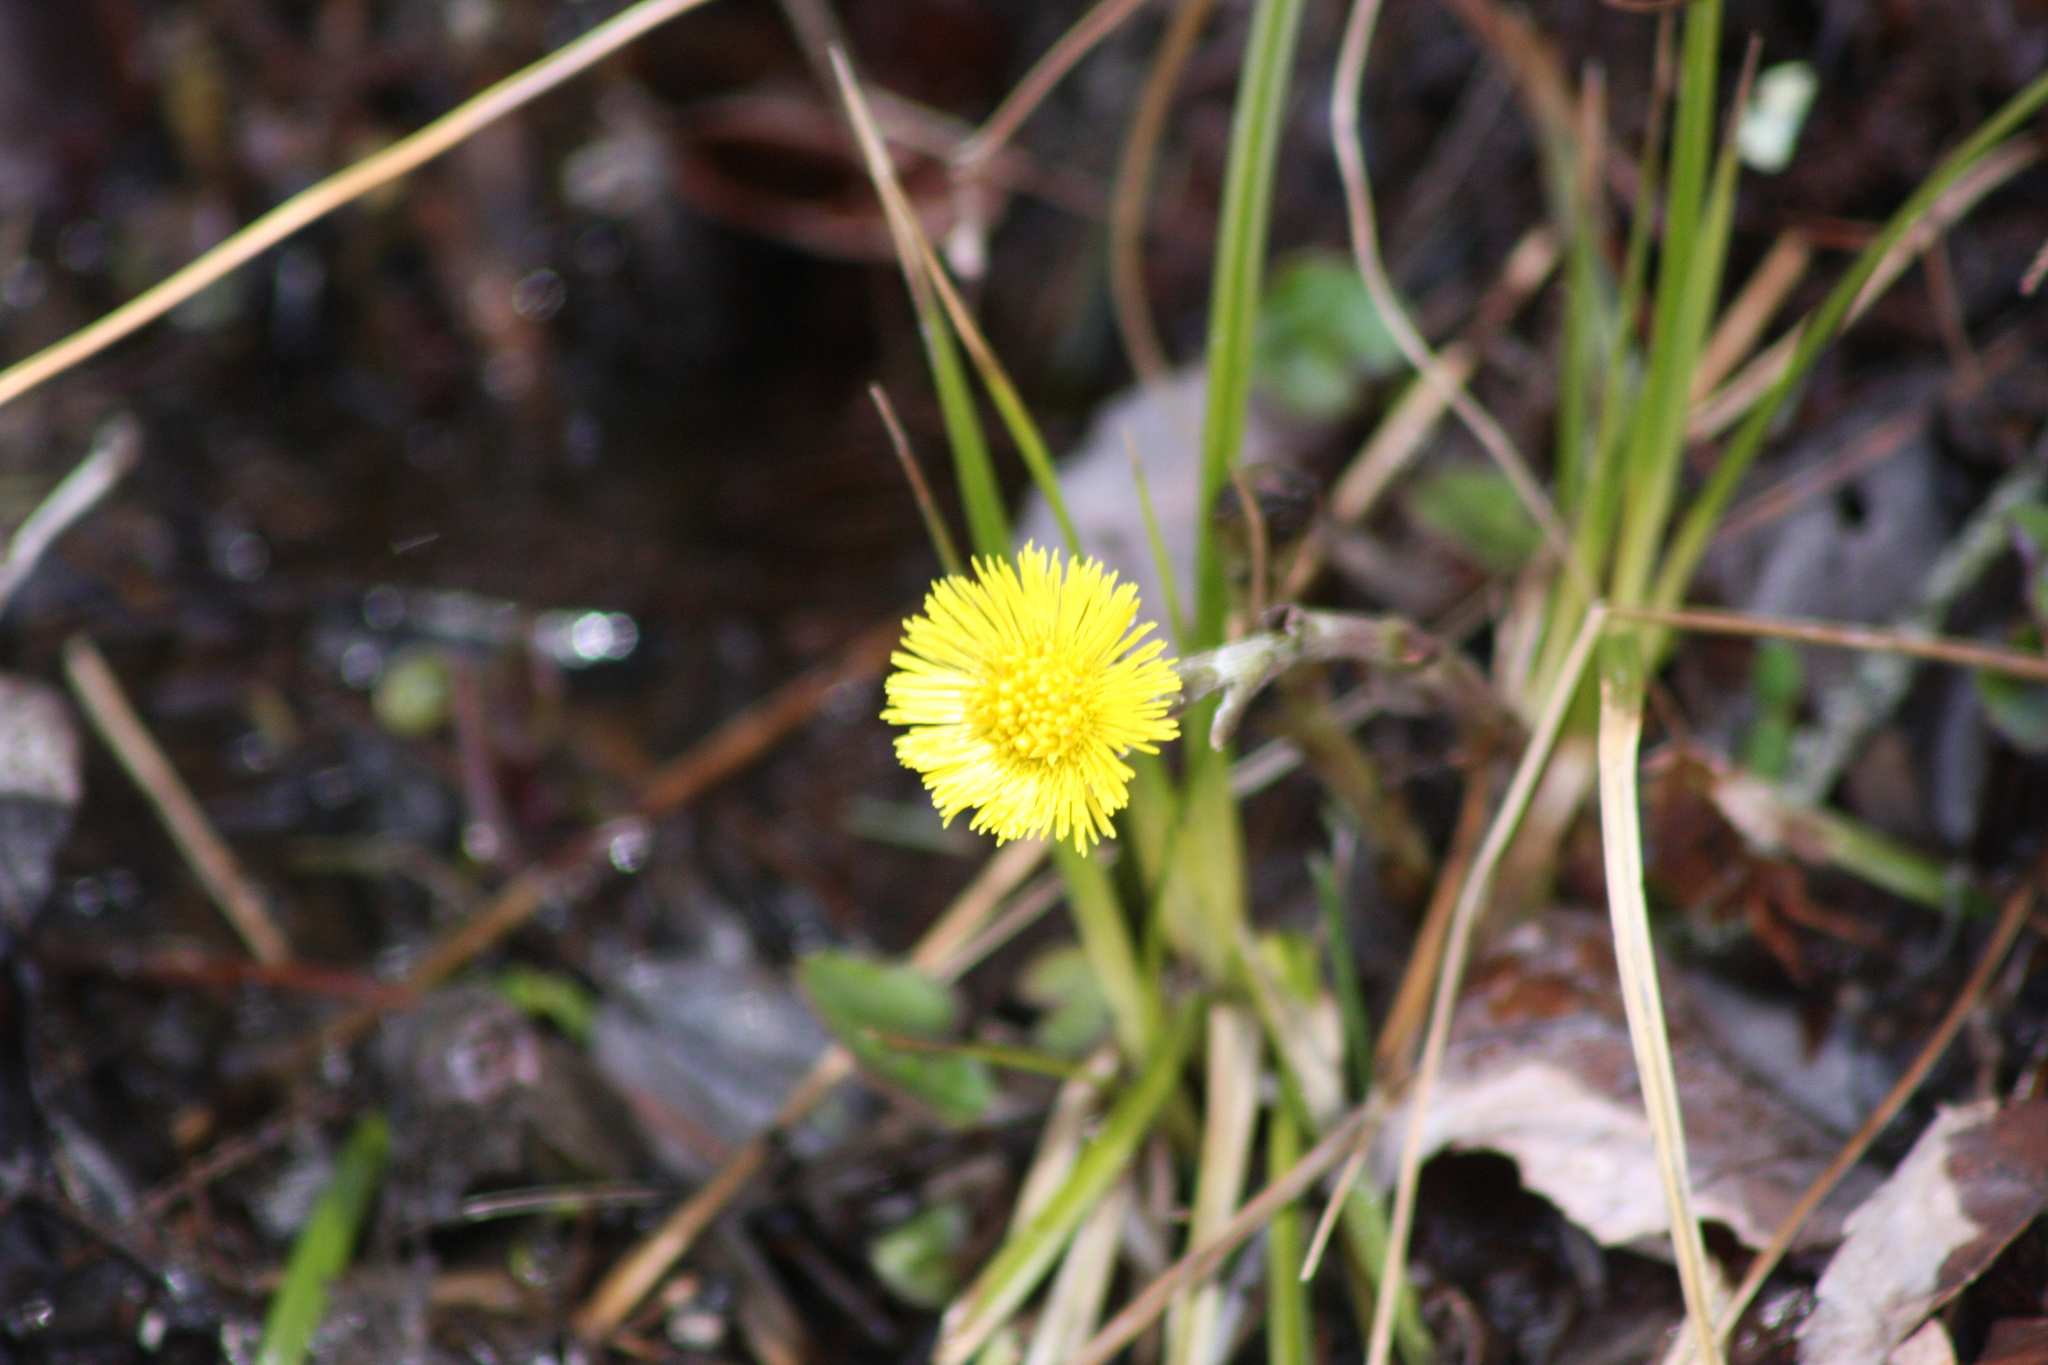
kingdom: Plantae
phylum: Tracheophyta
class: Magnoliopsida
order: Asterales
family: Asteraceae
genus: Tussilago
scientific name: Tussilago farfara
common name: Coltsfoot
